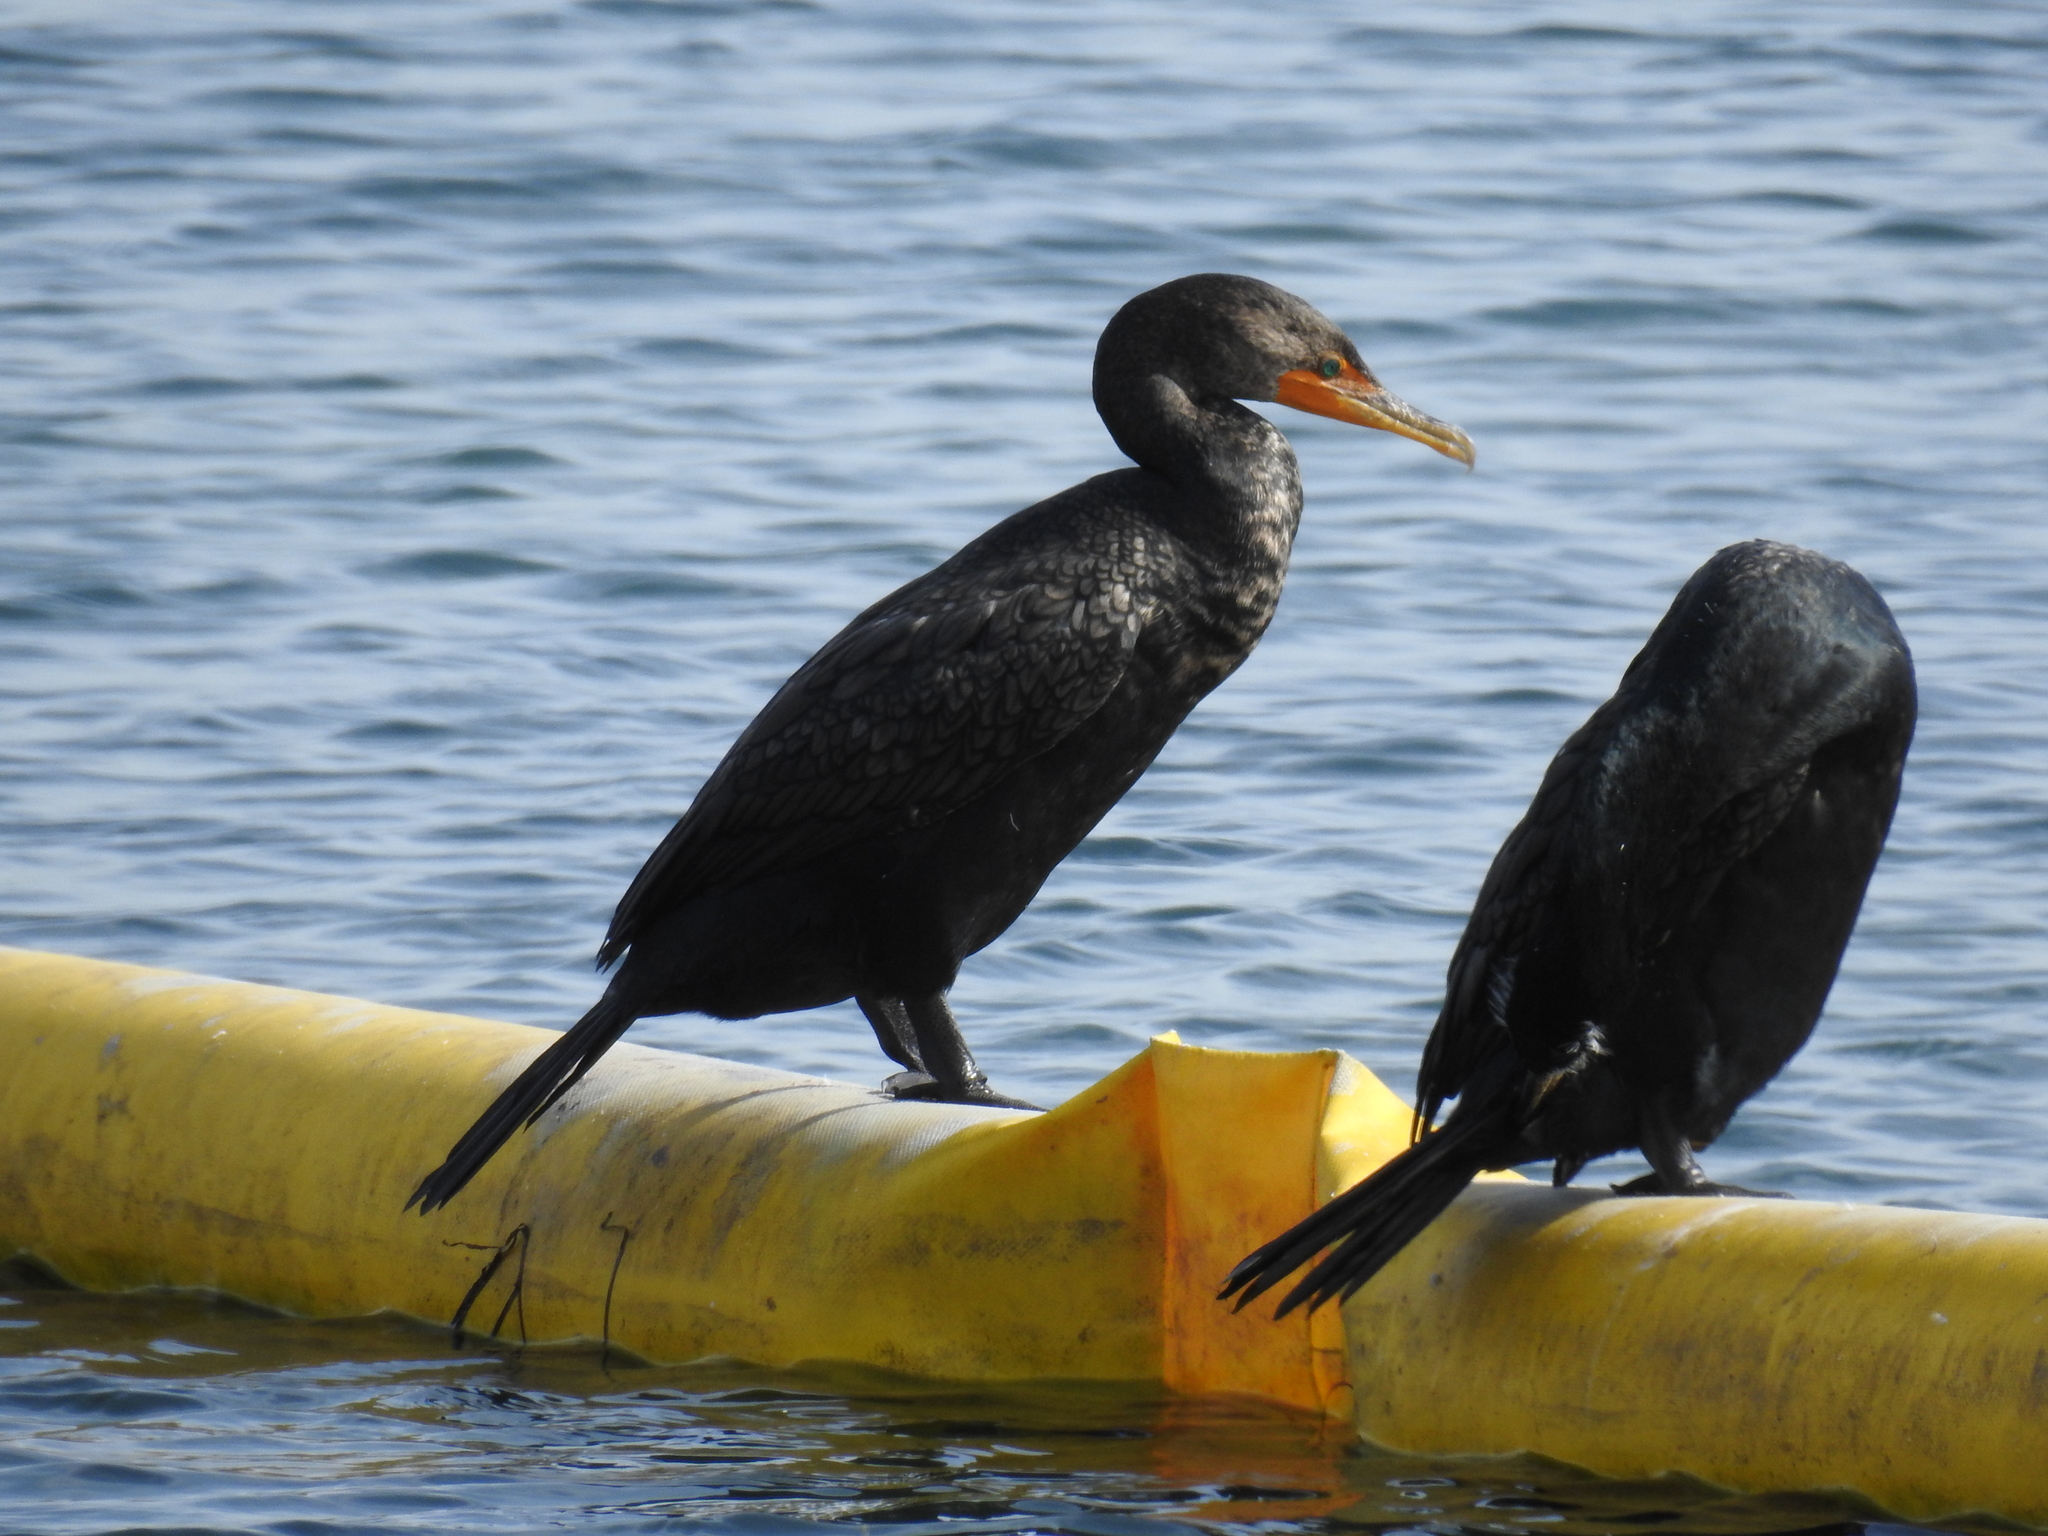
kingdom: Animalia
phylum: Chordata
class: Aves
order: Suliformes
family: Phalacrocoracidae
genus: Phalacrocorax
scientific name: Phalacrocorax auritus
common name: Double-crested cormorant
